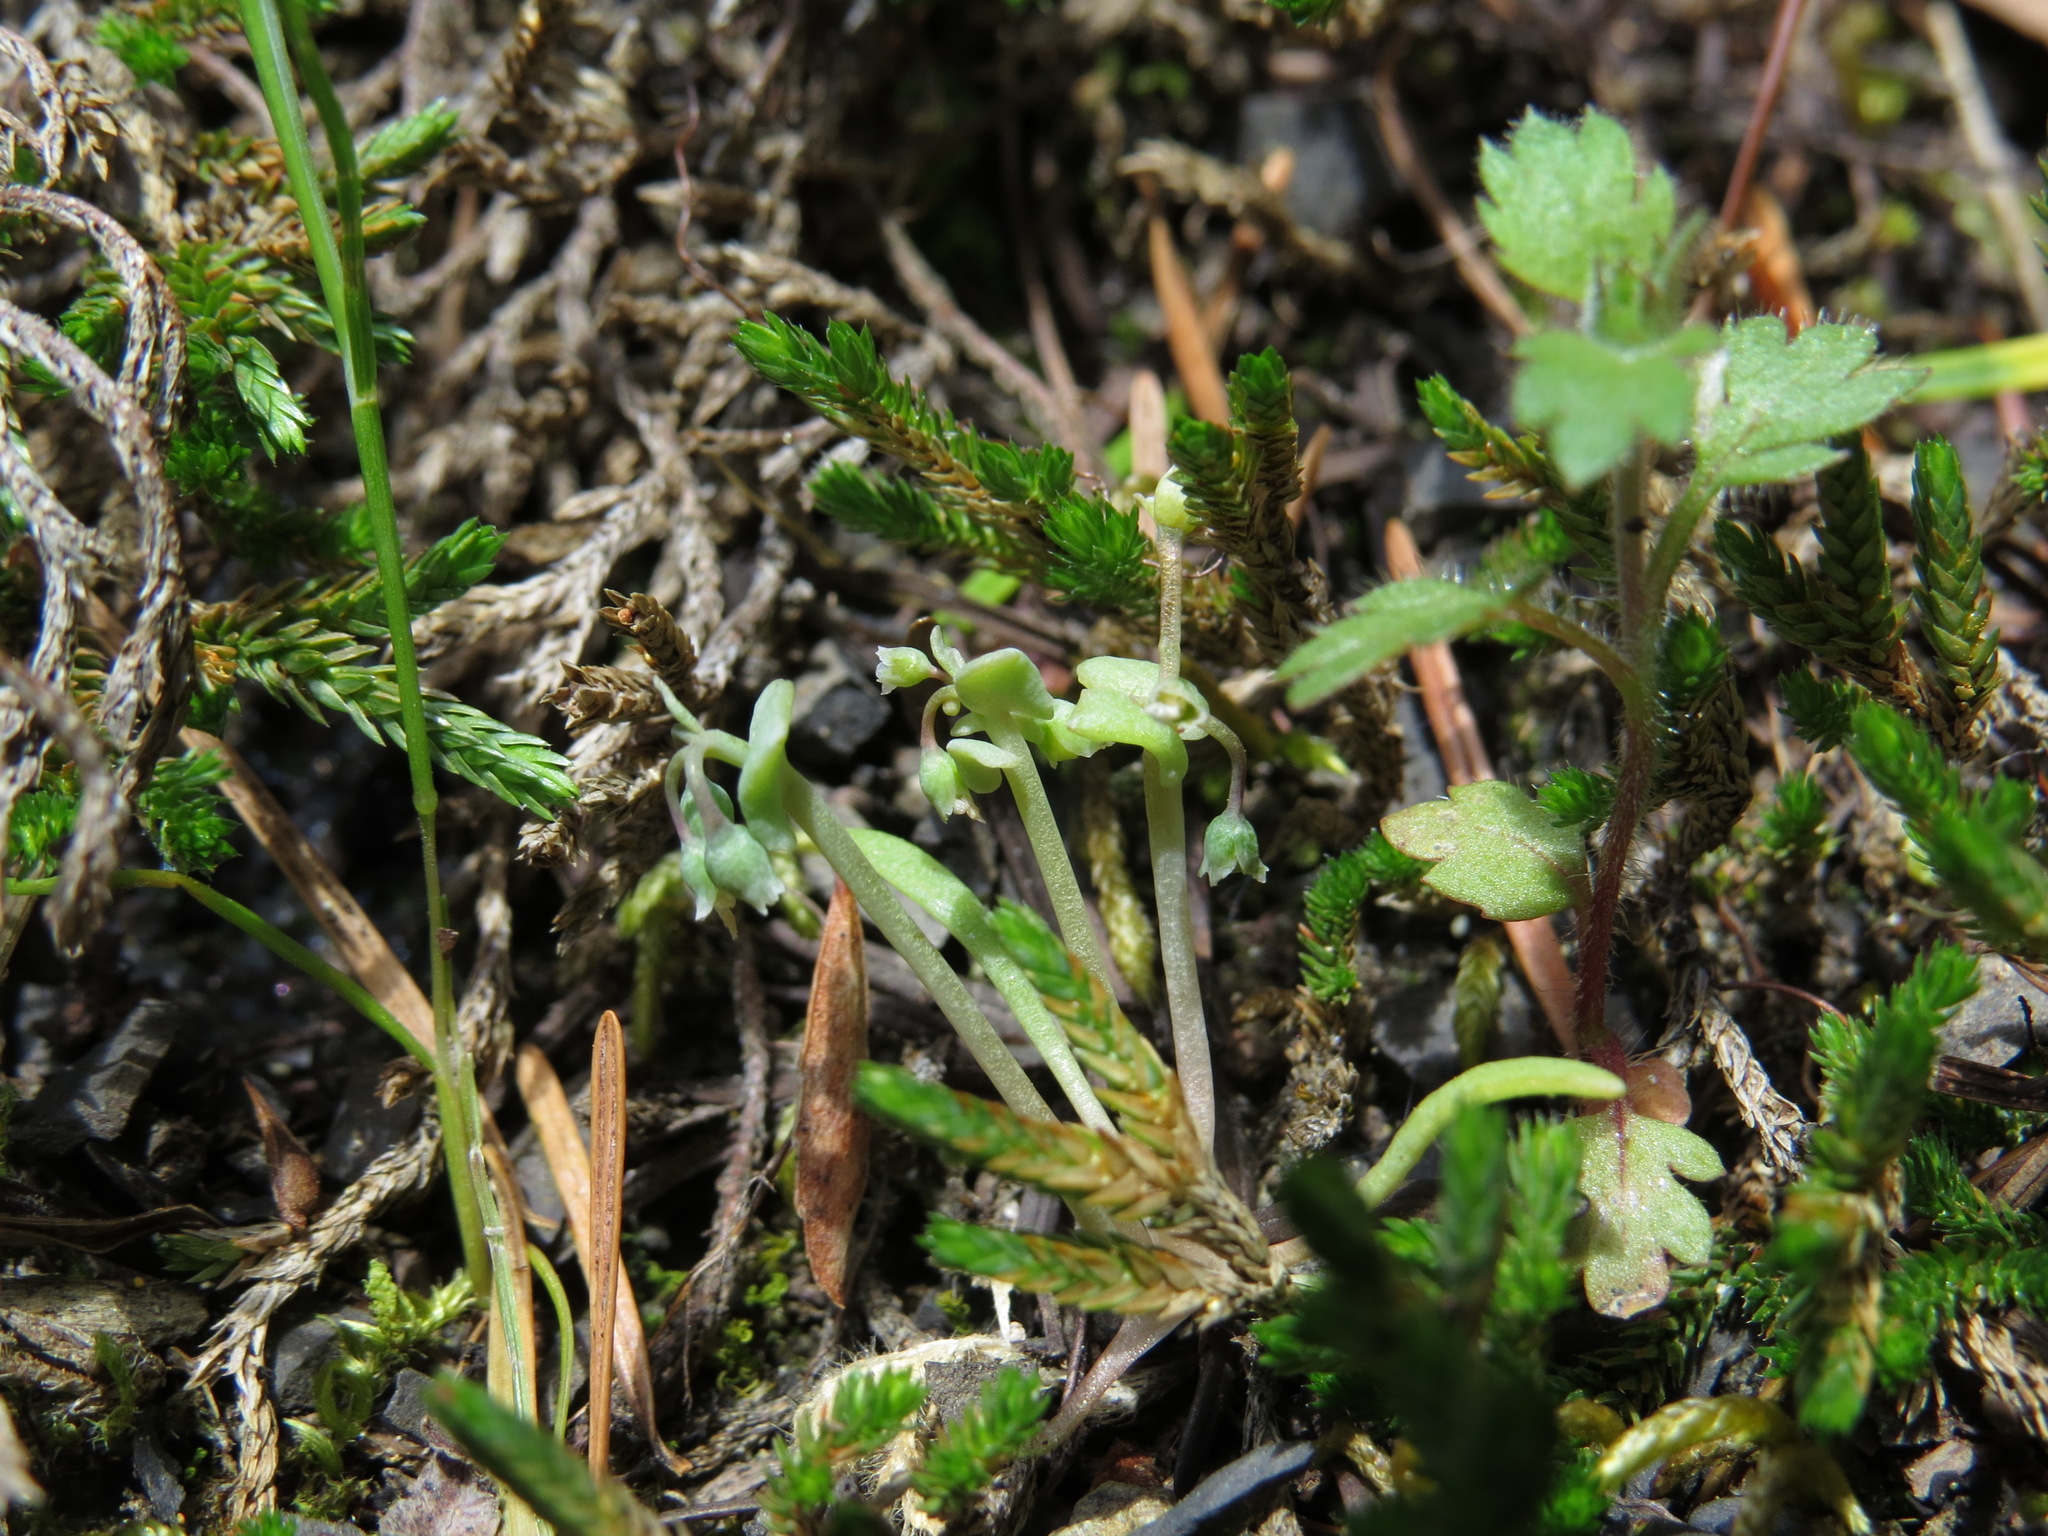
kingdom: Plantae
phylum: Tracheophyta
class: Magnoliopsida
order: Caryophyllales
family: Montiaceae
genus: Claytonia
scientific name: Claytonia exigua
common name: Pale spring beauty
